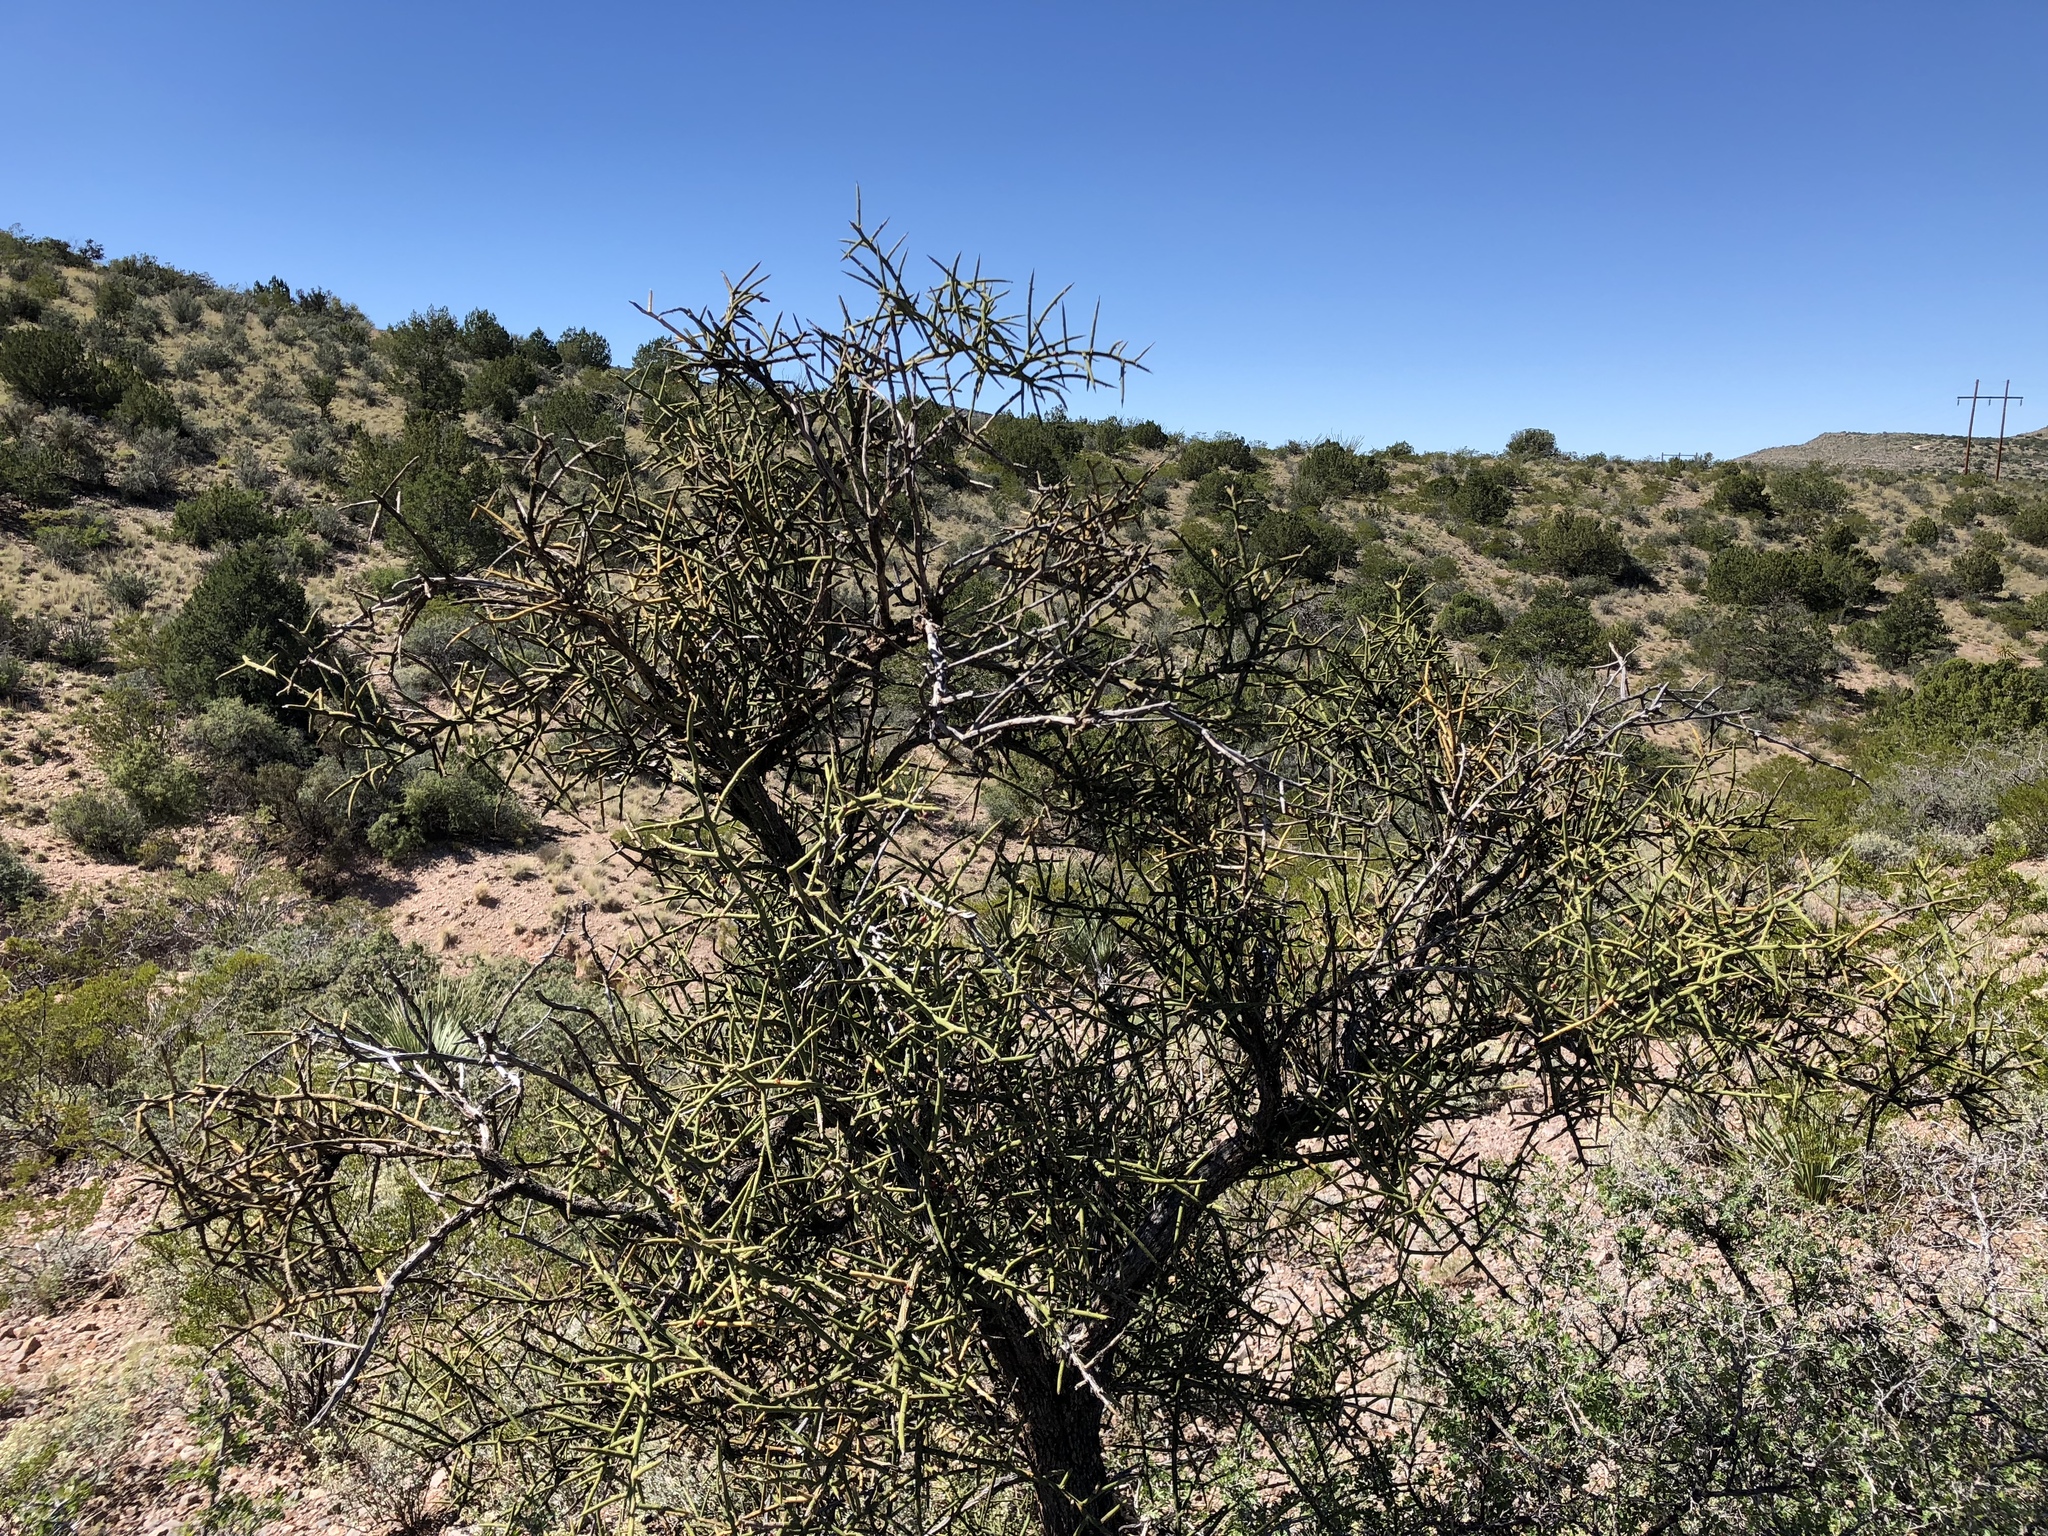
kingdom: Plantae
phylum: Tracheophyta
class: Magnoliopsida
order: Brassicales
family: Koeberliniaceae
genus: Koeberlinia
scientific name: Koeberlinia spinosa
